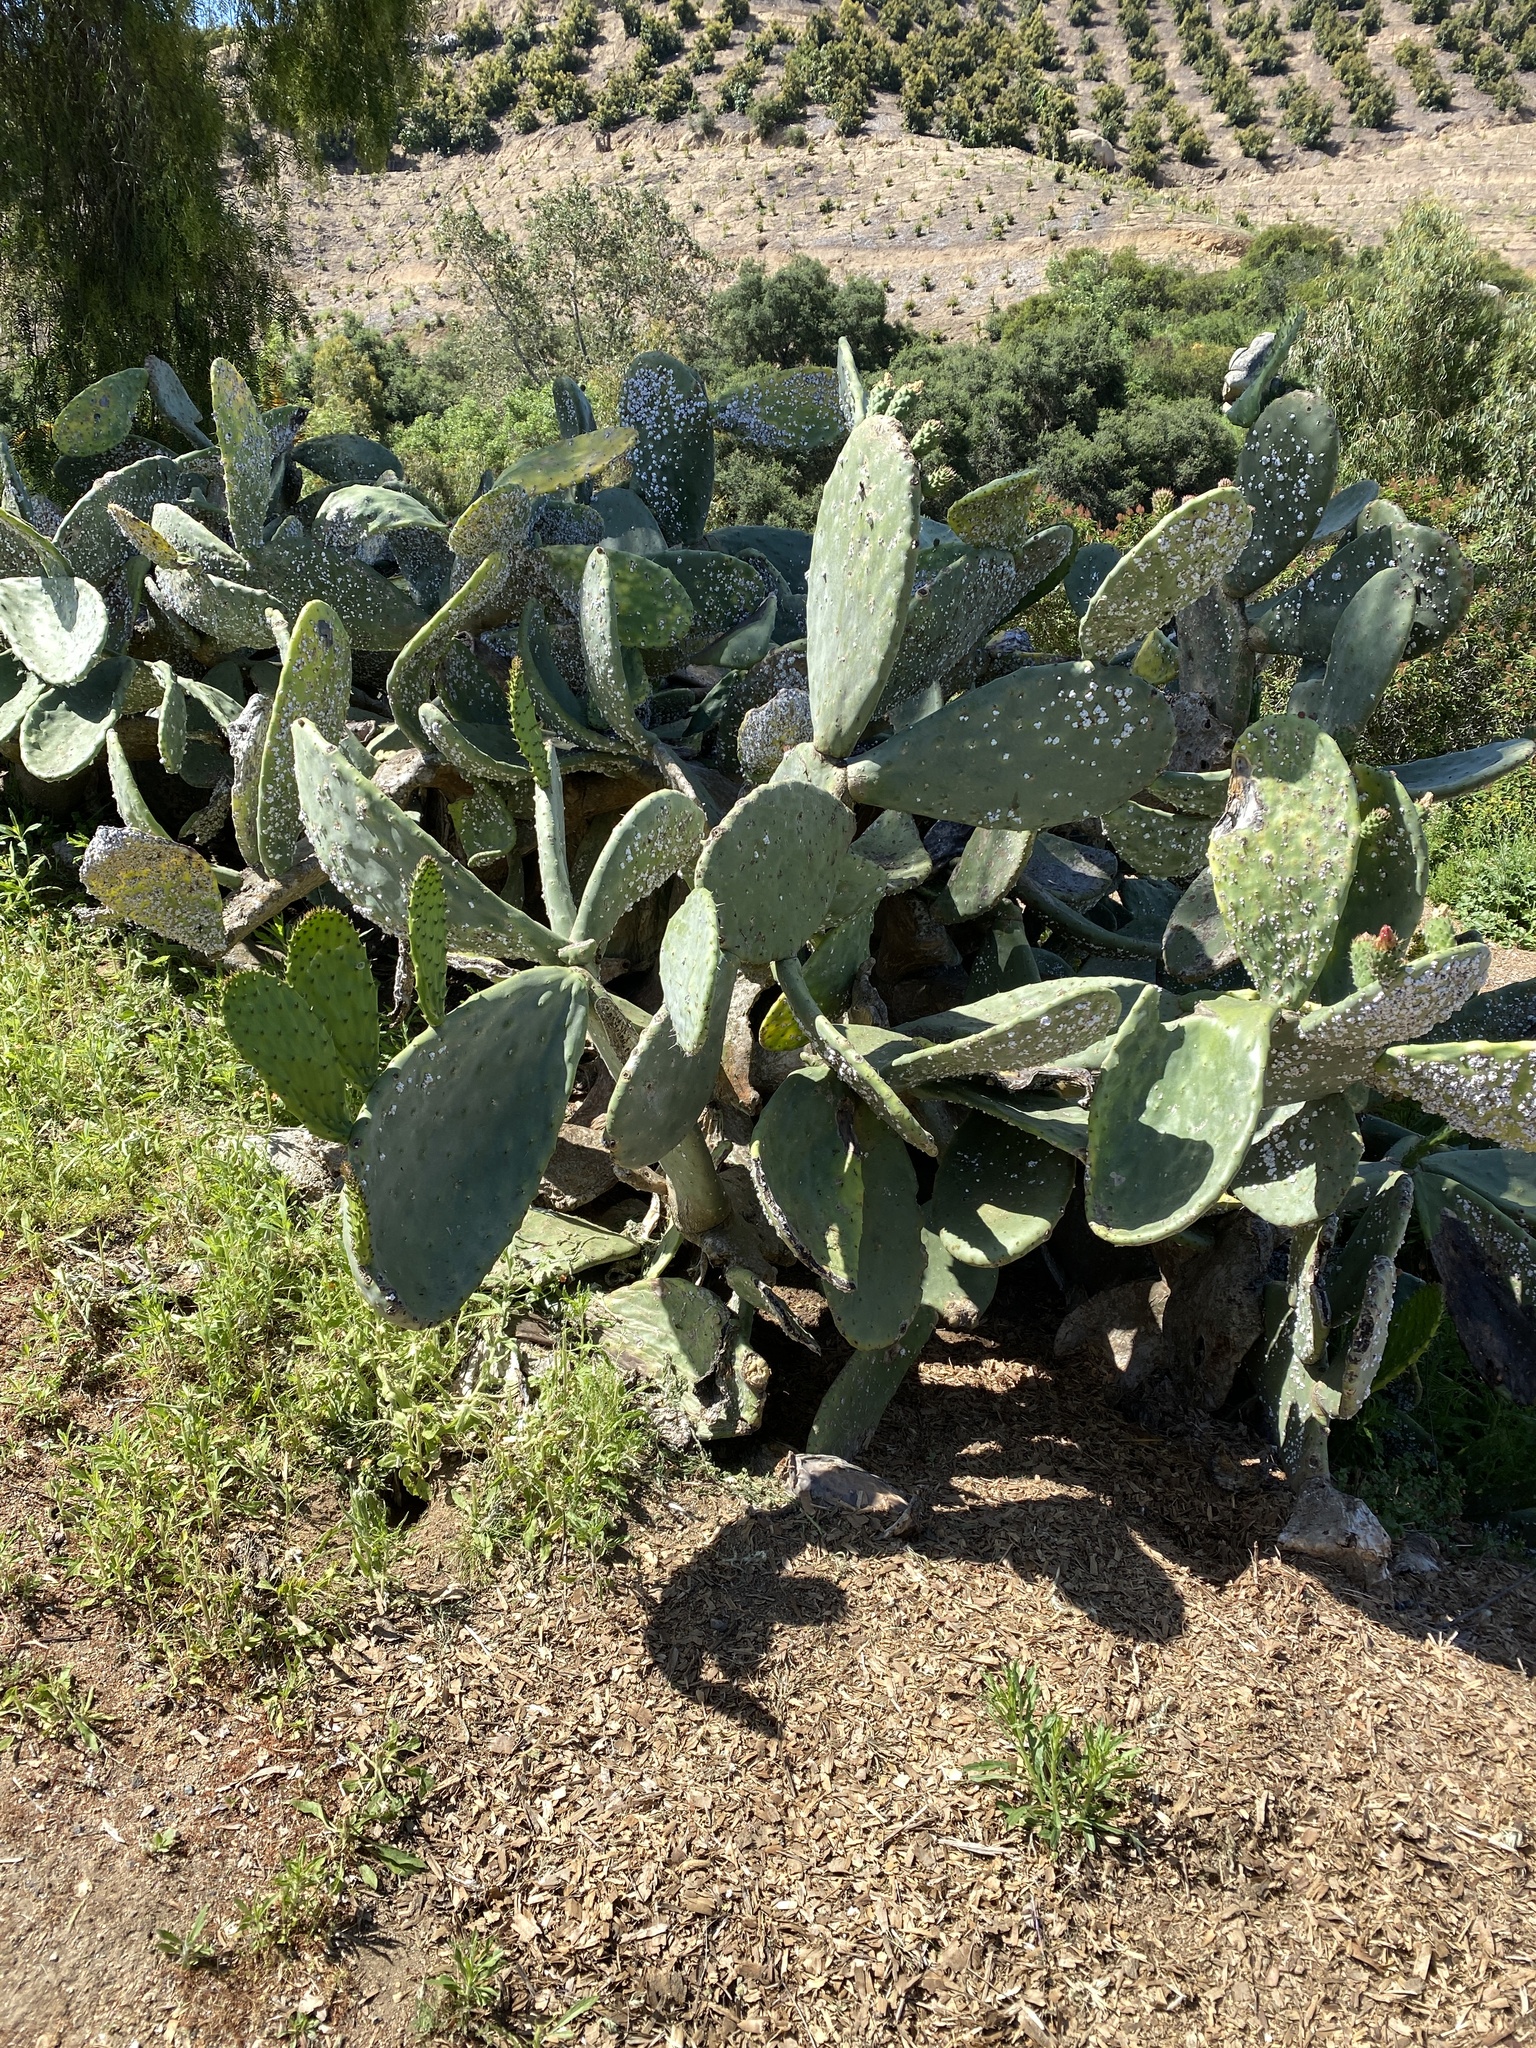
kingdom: Plantae
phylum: Tracheophyta
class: Magnoliopsida
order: Caryophyllales
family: Cactaceae
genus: Opuntia
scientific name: Opuntia ficus-indica
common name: Barbary fig
